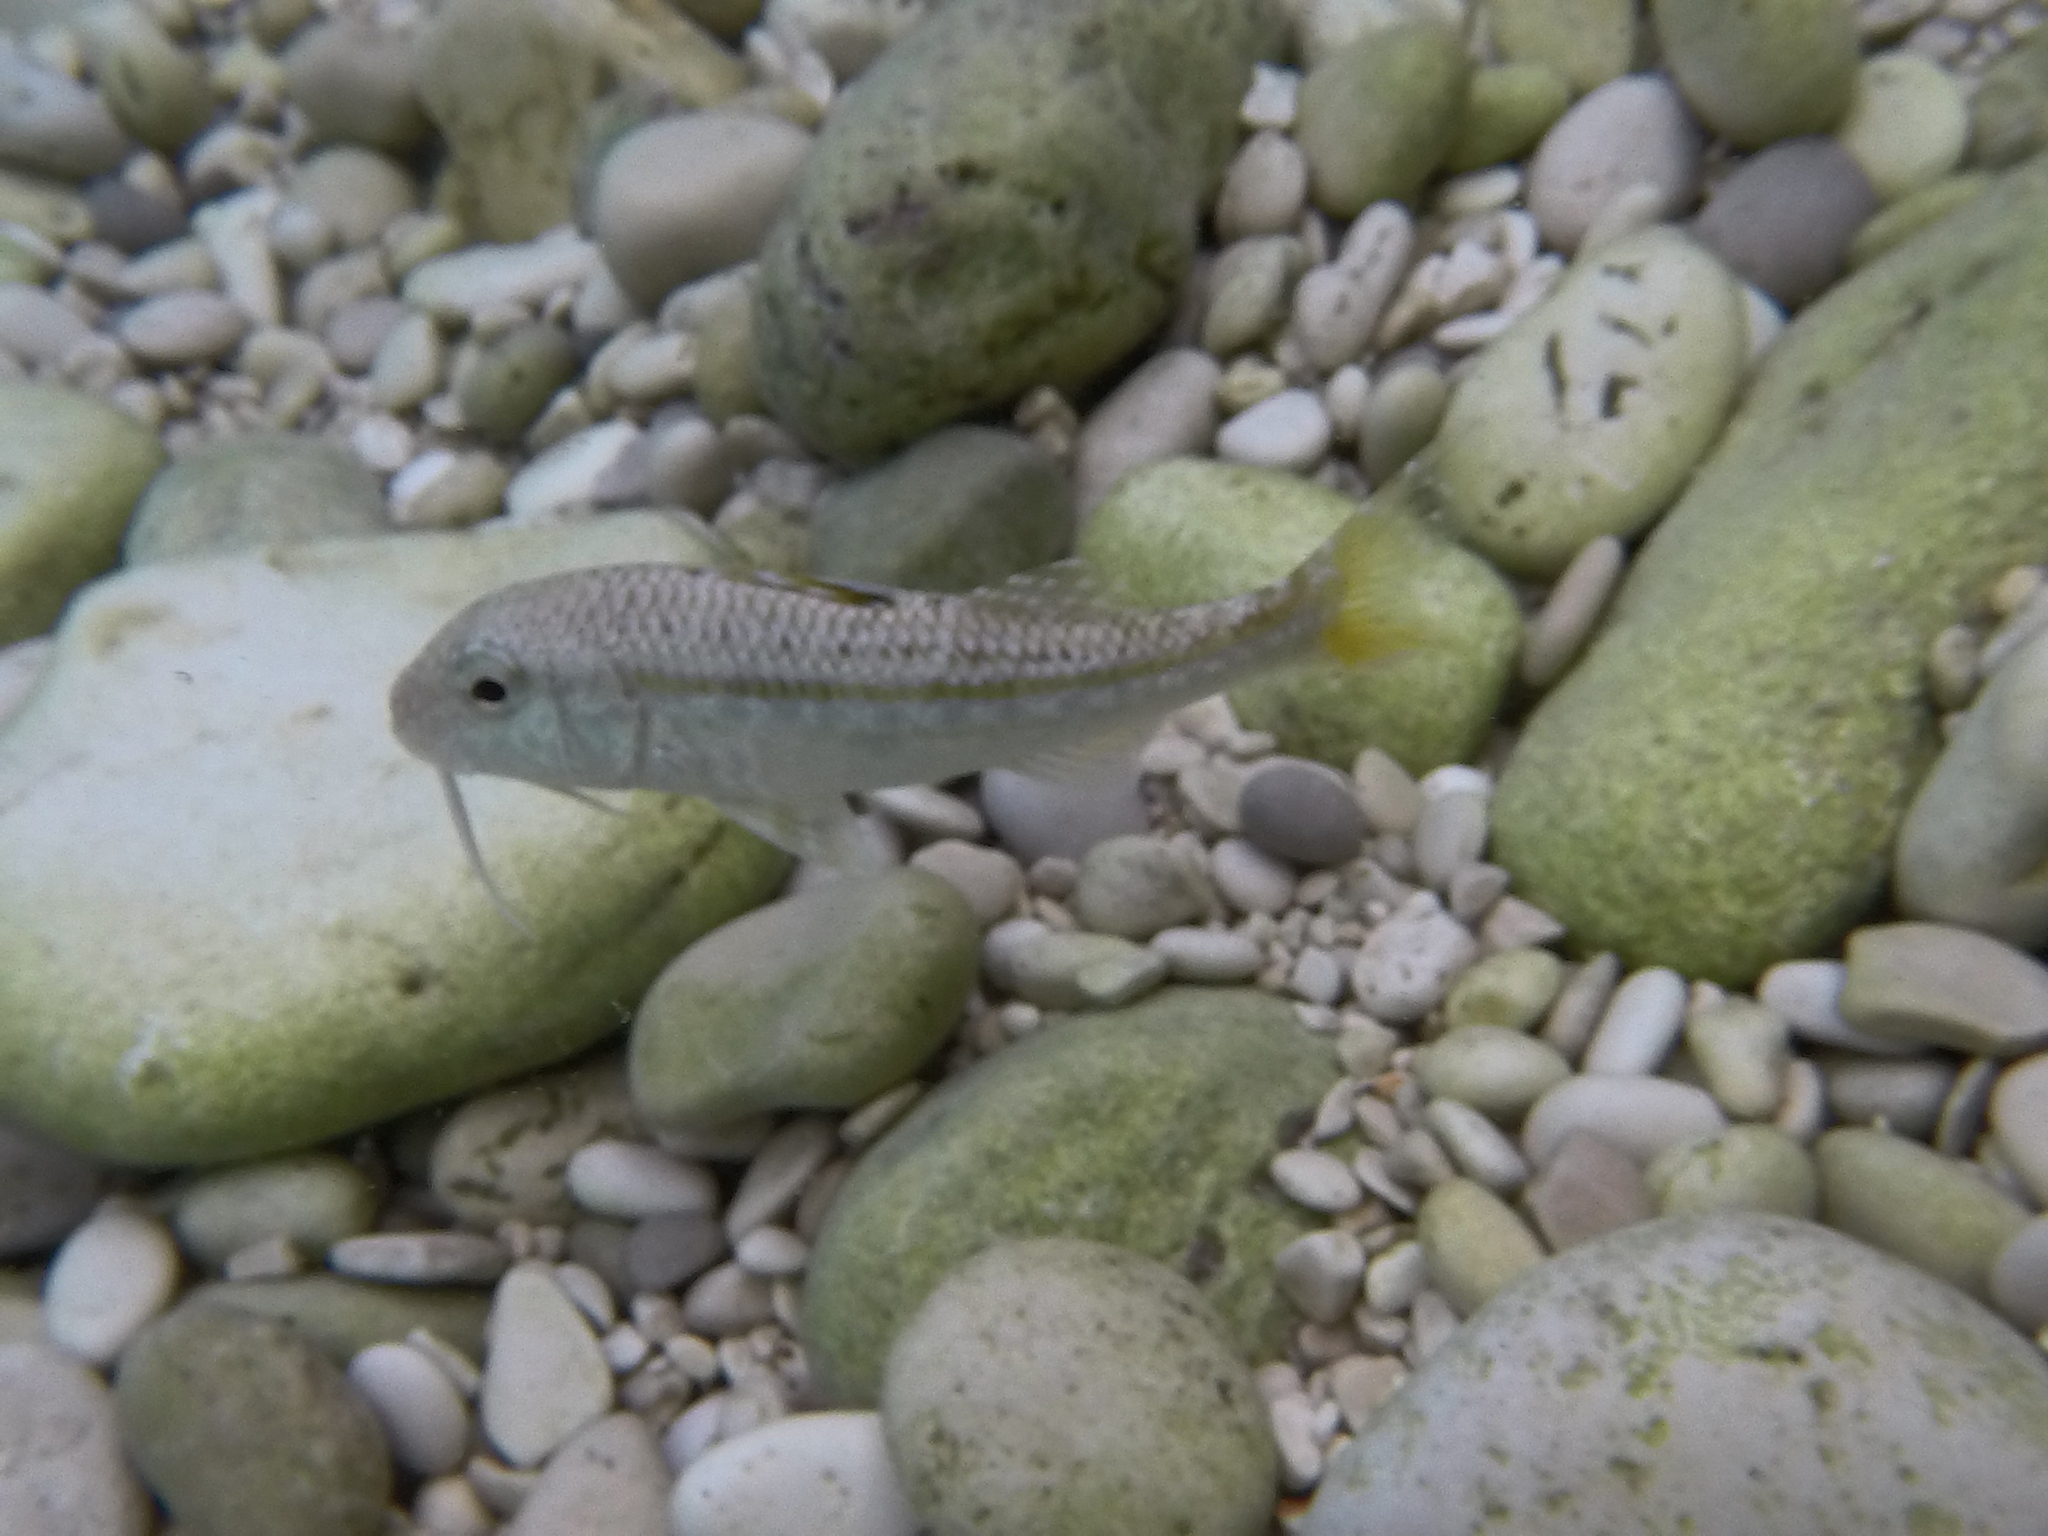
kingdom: Animalia
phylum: Chordata
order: Perciformes
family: Mullidae
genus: Mullus
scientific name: Mullus surmuletus
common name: Red mullet
